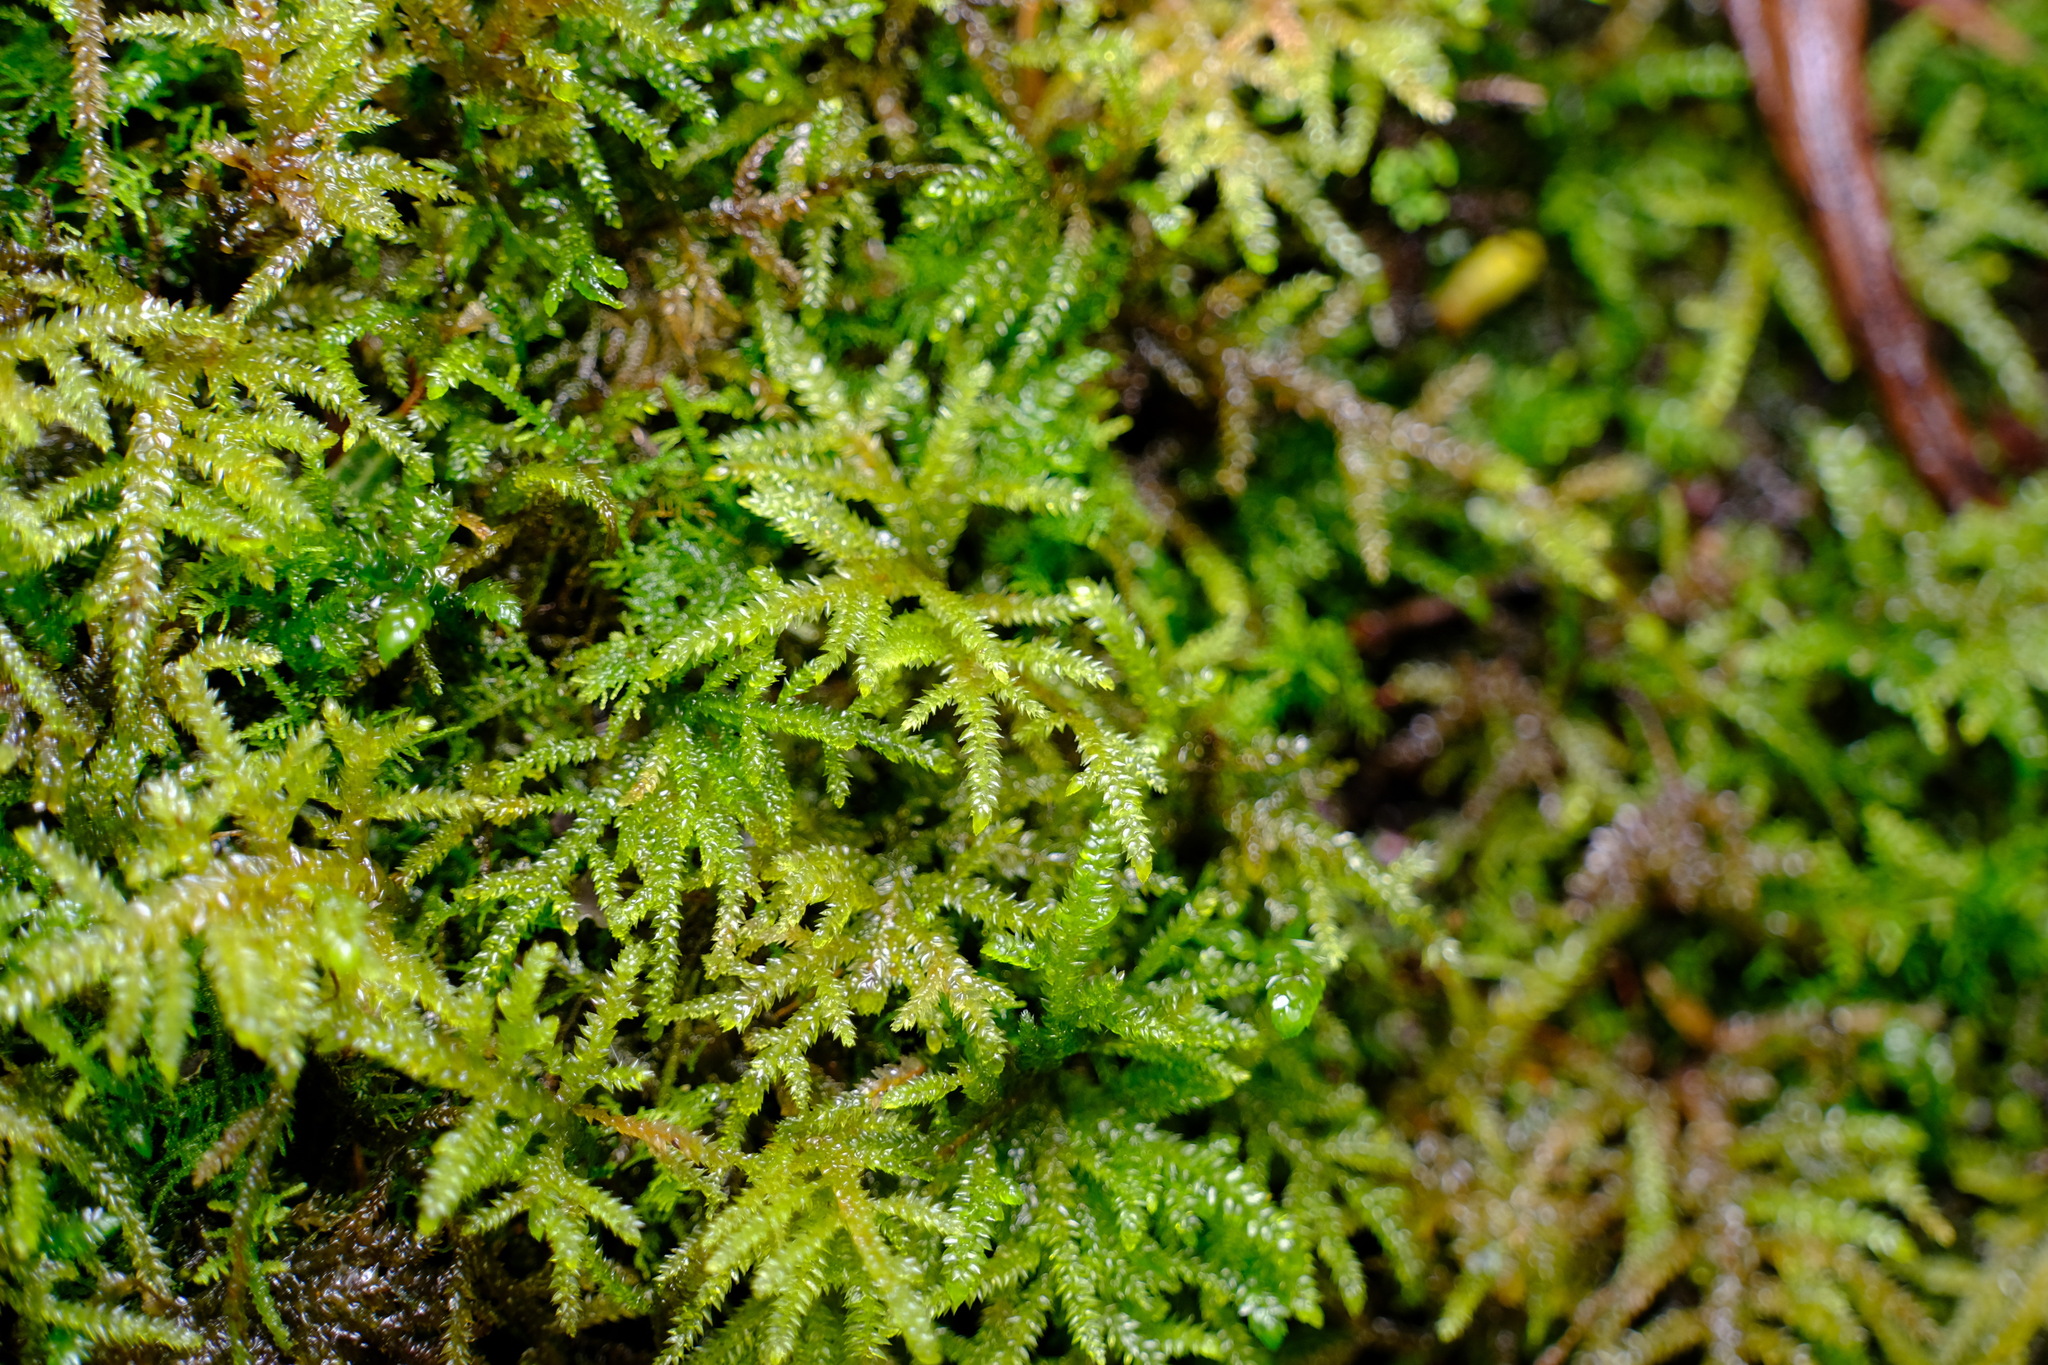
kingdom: Plantae
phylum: Bryophyta
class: Bryopsida
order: Hypnodendrales
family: Spiridentaceae
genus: Hypnodendron
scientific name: Hypnodendron
